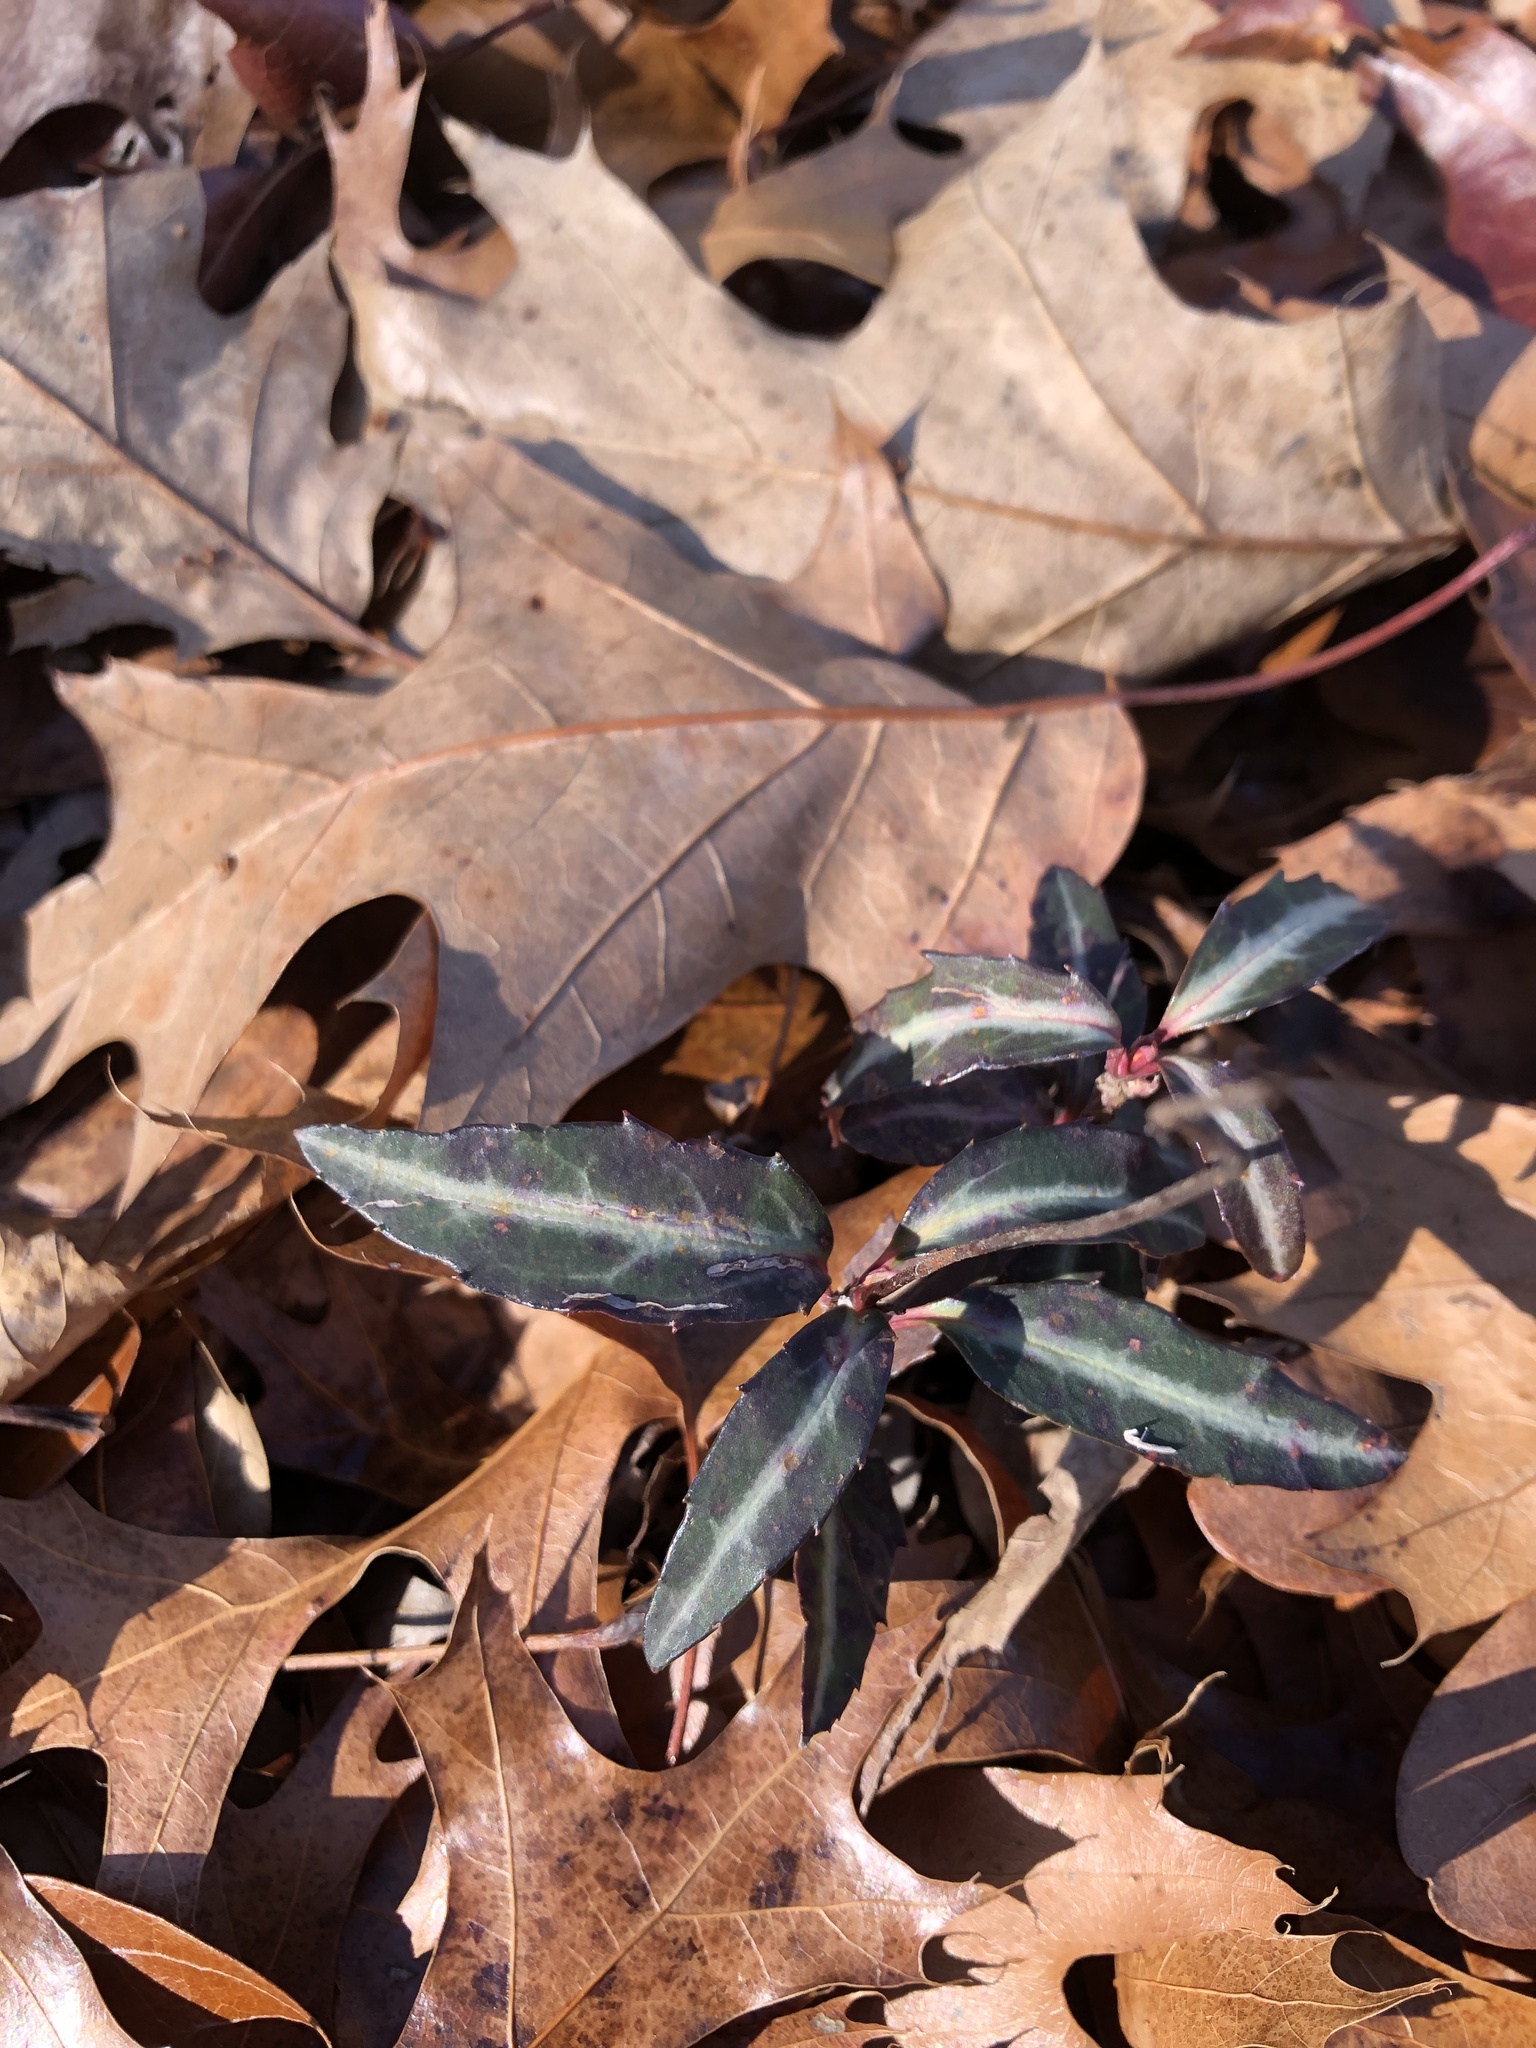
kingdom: Plantae
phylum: Tracheophyta
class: Magnoliopsida
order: Ericales
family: Ericaceae
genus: Chimaphila
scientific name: Chimaphila maculata
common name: Spotted pipsissewa
